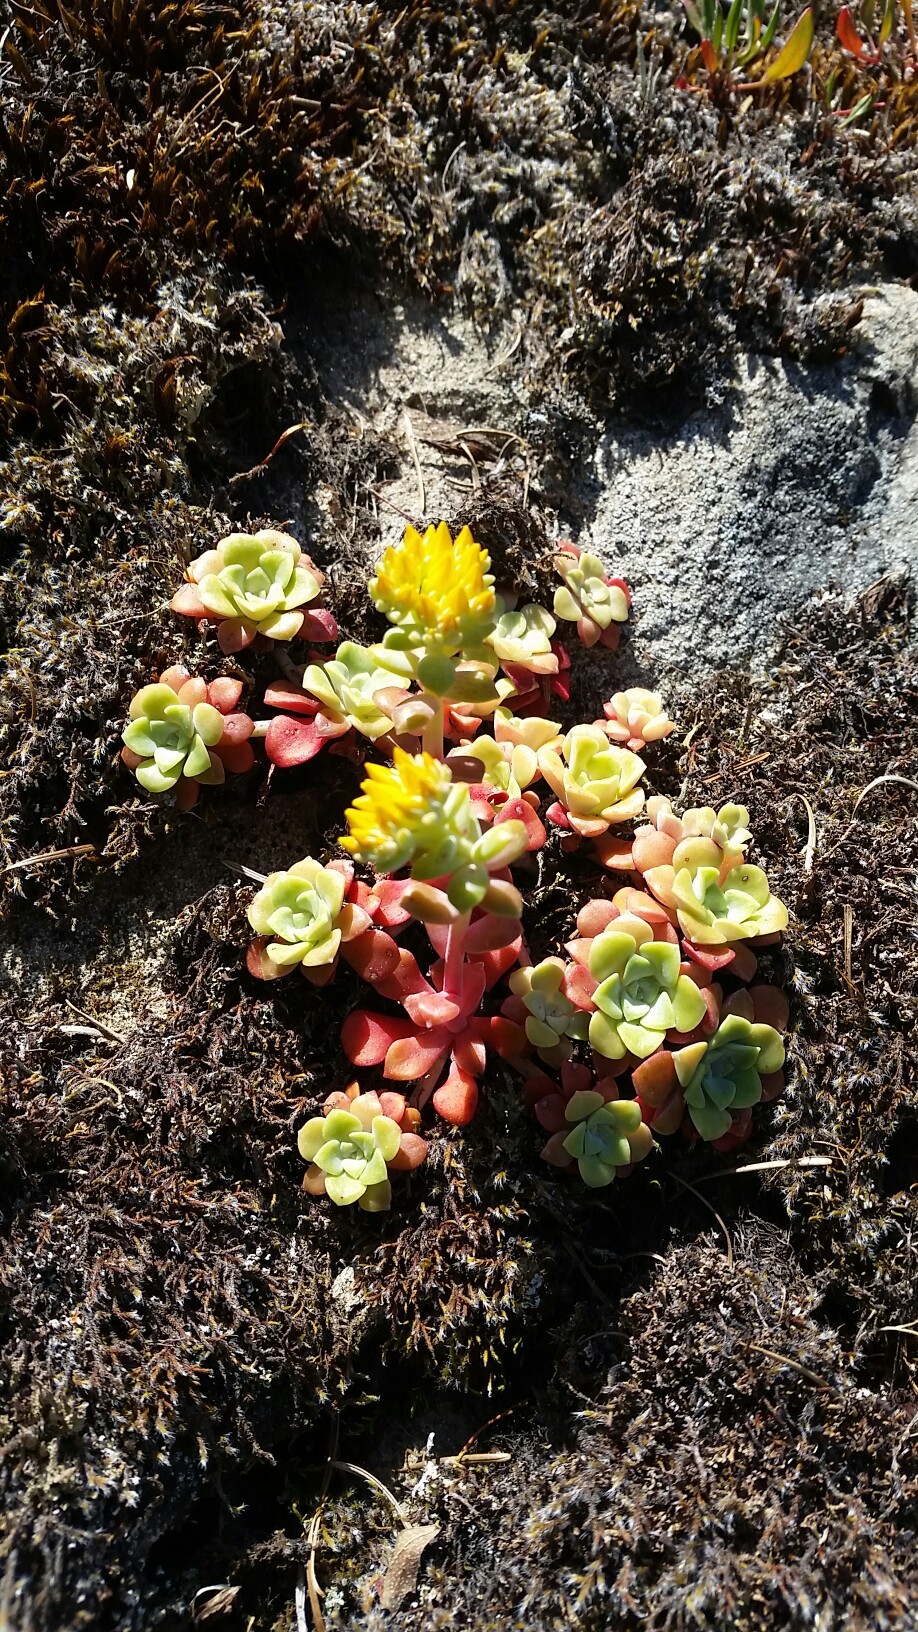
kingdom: Plantae
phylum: Tracheophyta
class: Magnoliopsida
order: Saxifragales
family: Crassulaceae
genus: Sedum
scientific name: Sedum spathulifolium
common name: Colorado stonecrop
